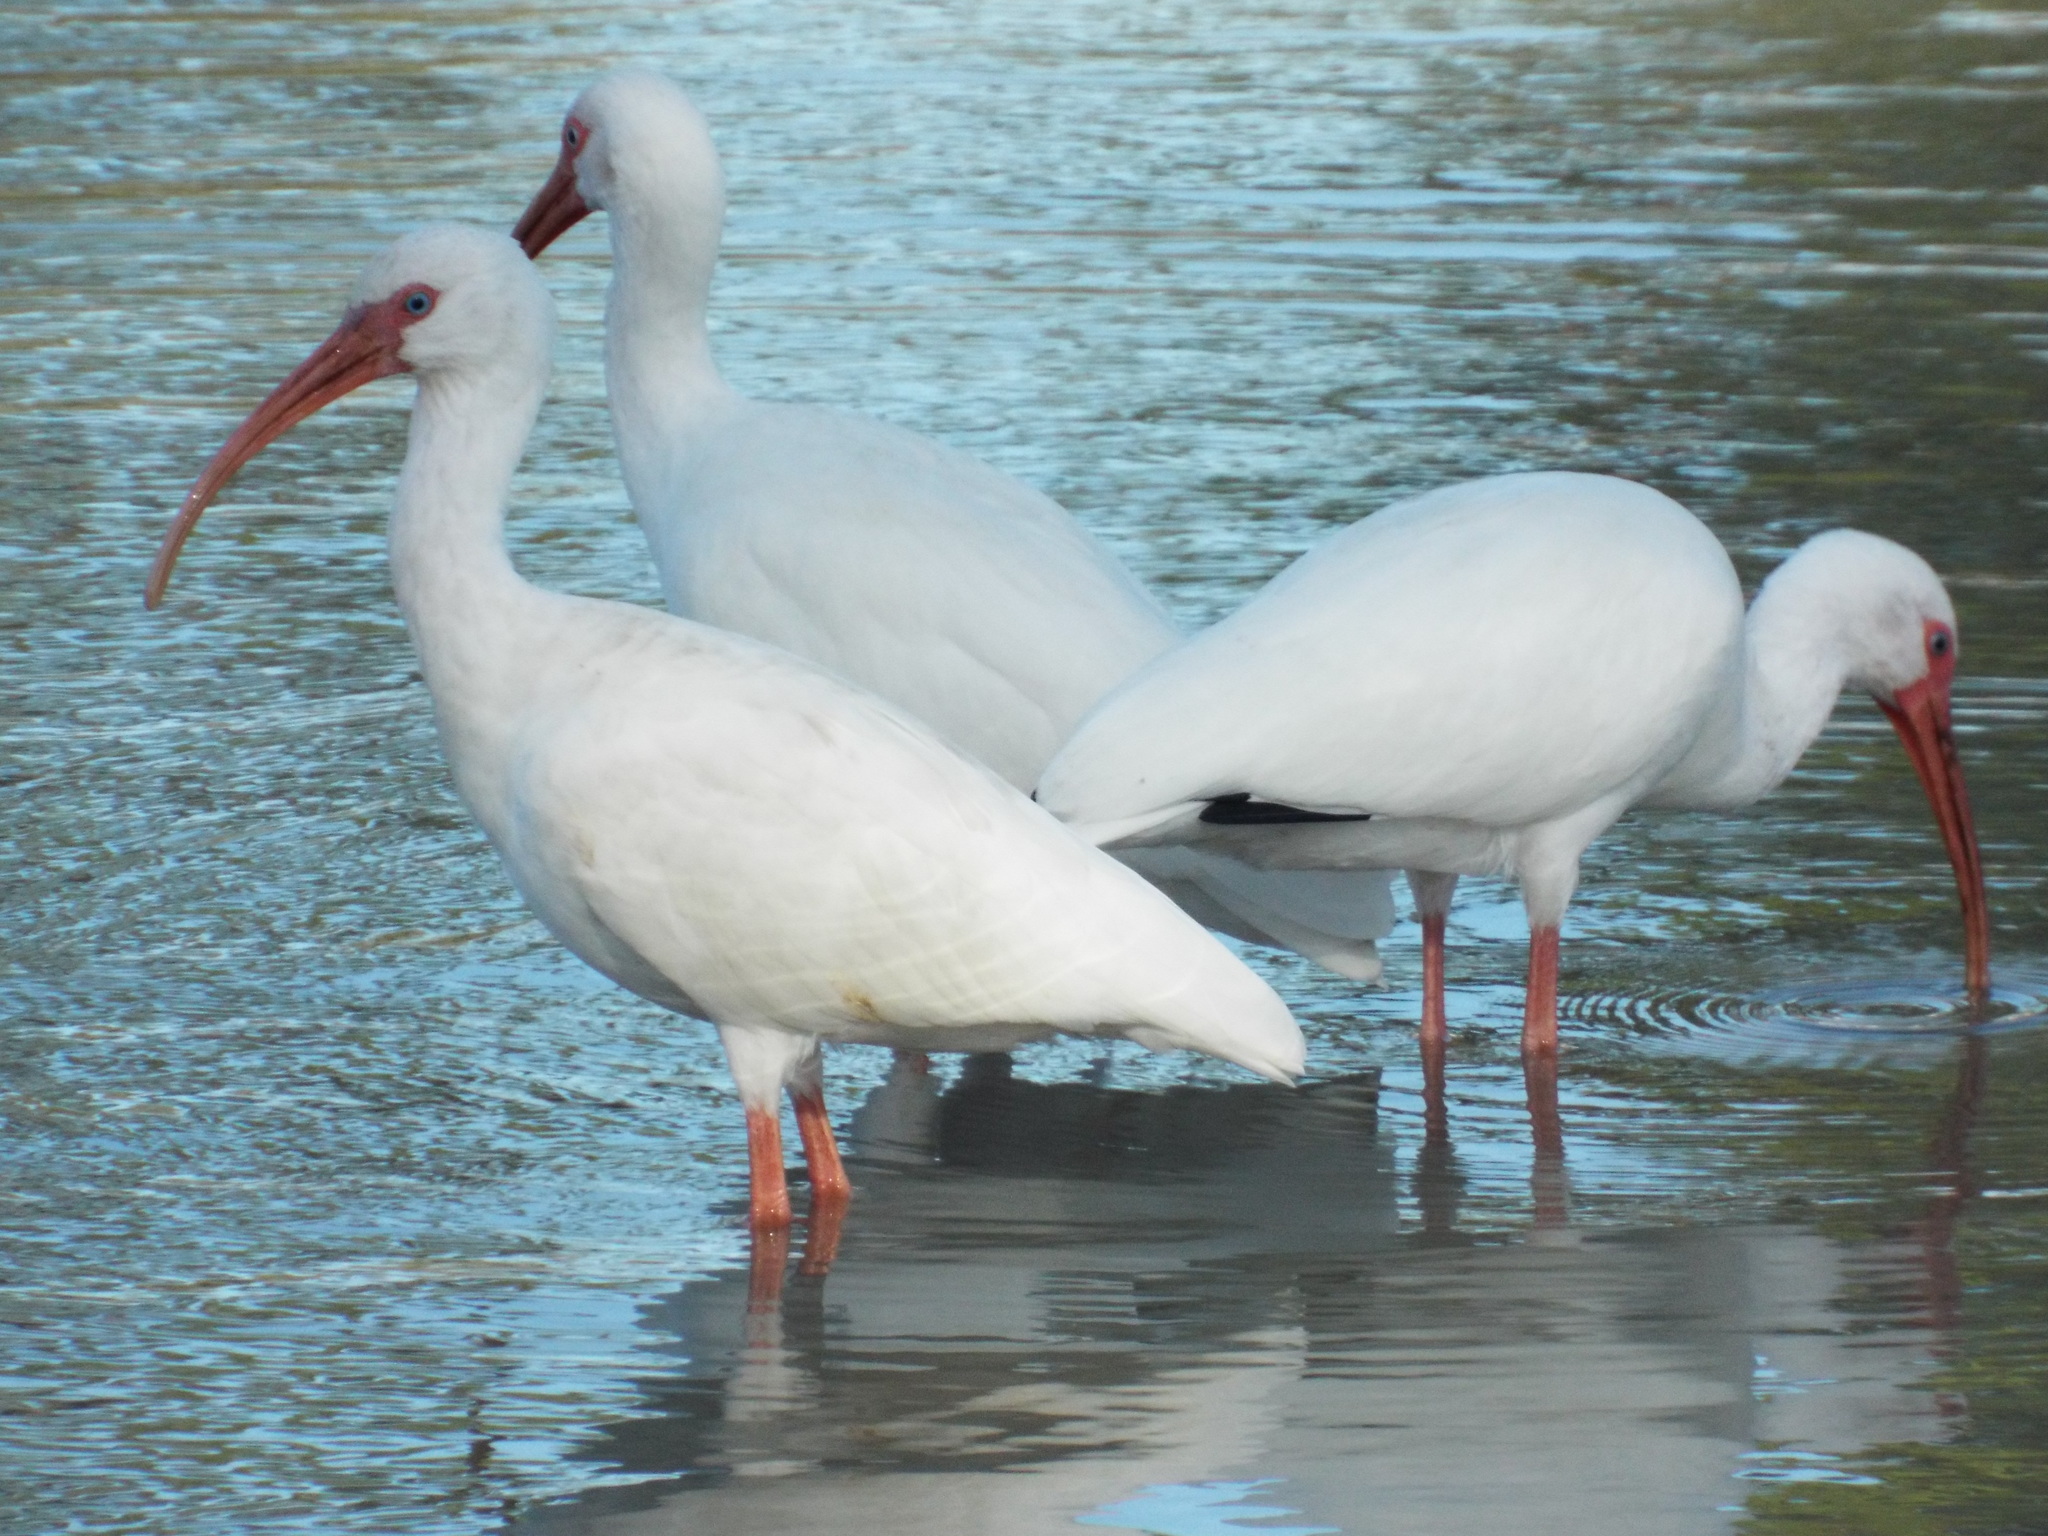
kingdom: Animalia
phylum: Chordata
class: Aves
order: Pelecaniformes
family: Threskiornithidae
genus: Eudocimus
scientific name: Eudocimus albus
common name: White ibis
